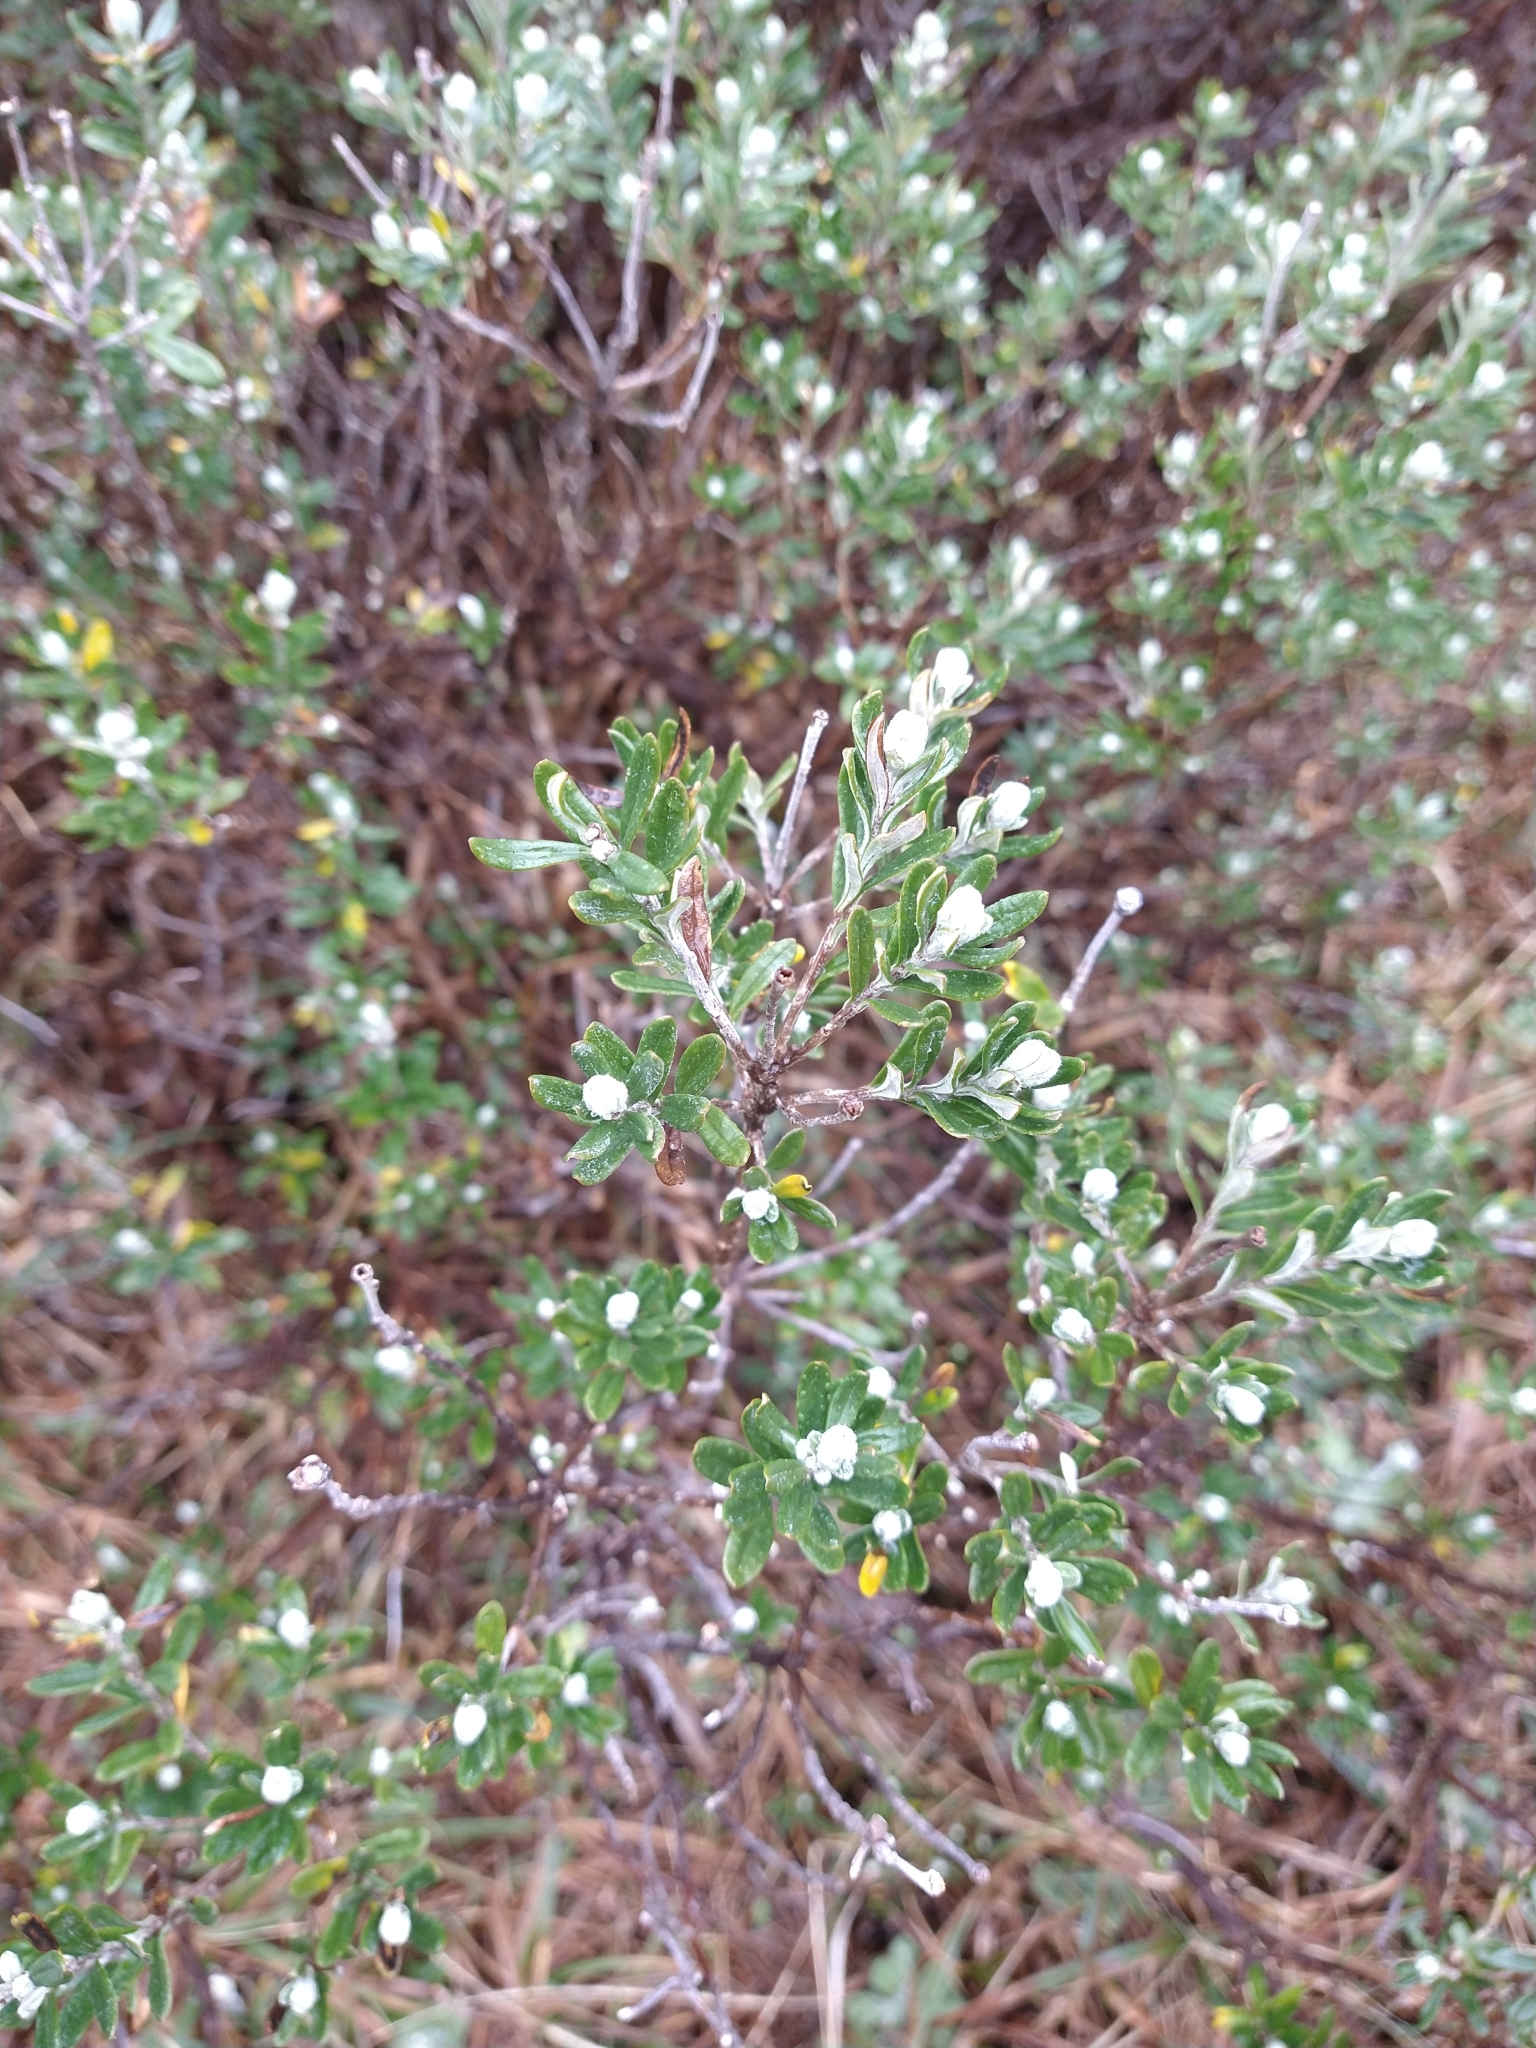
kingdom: Plantae
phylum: Tracheophyta
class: Magnoliopsida
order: Asterales
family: Asteraceae
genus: Chiliotrichum
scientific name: Chiliotrichum diffusum
